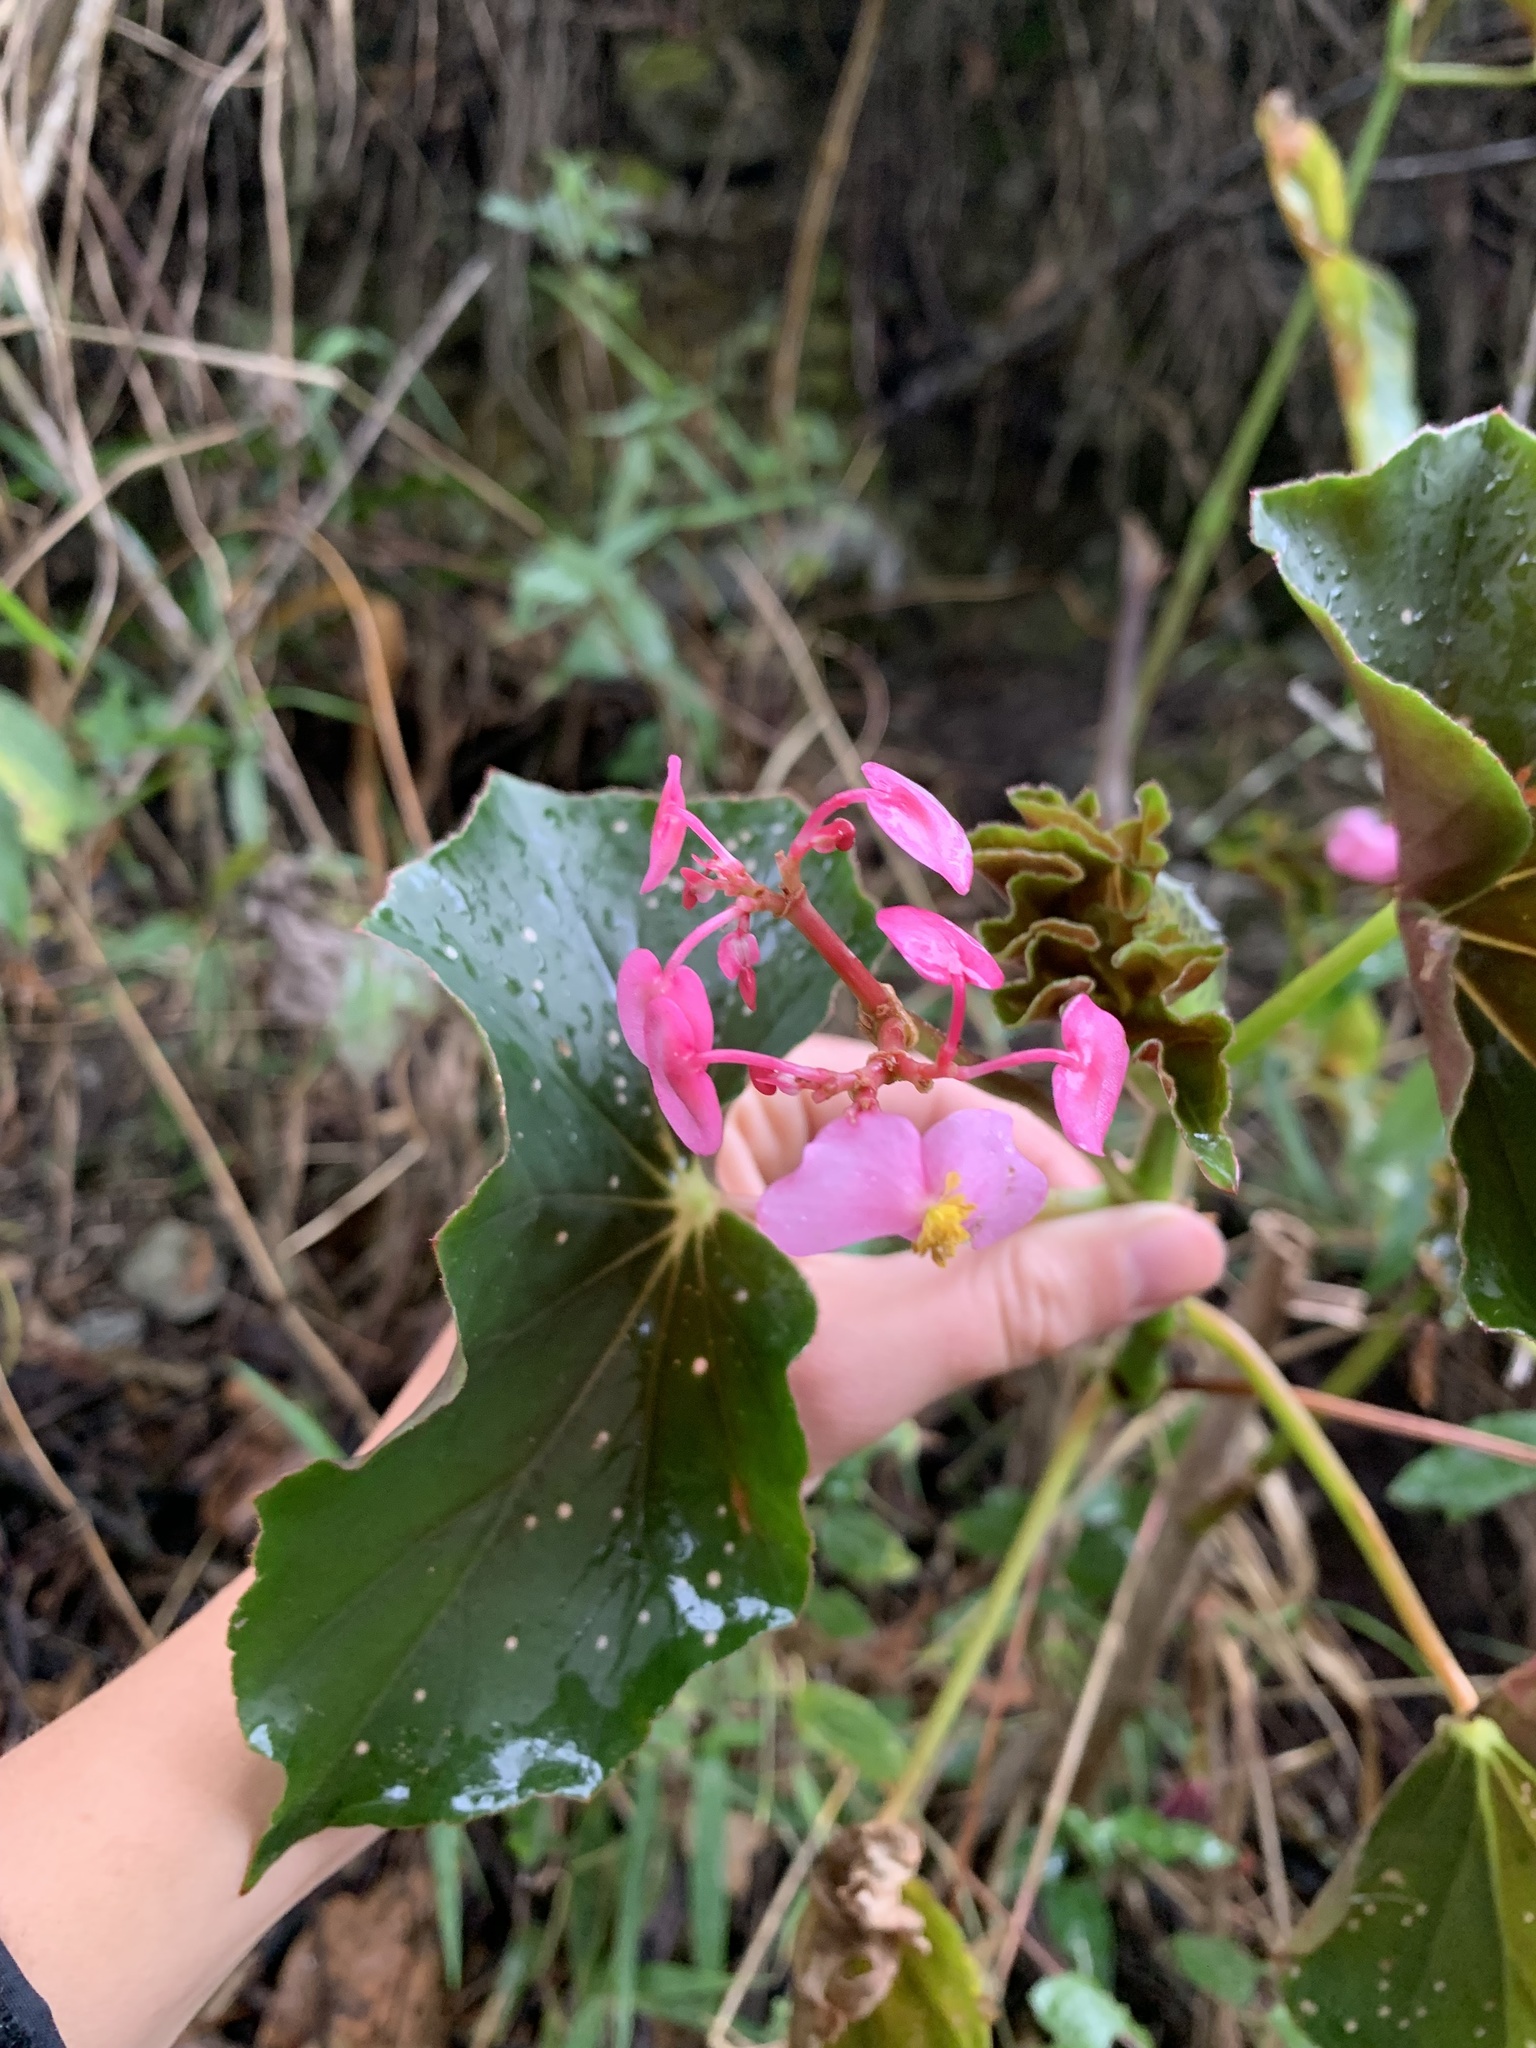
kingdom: Plantae
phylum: Tracheophyta
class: Magnoliopsida
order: Cucurbitales
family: Begoniaceae
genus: Begonia
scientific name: Begonia bracteosa
